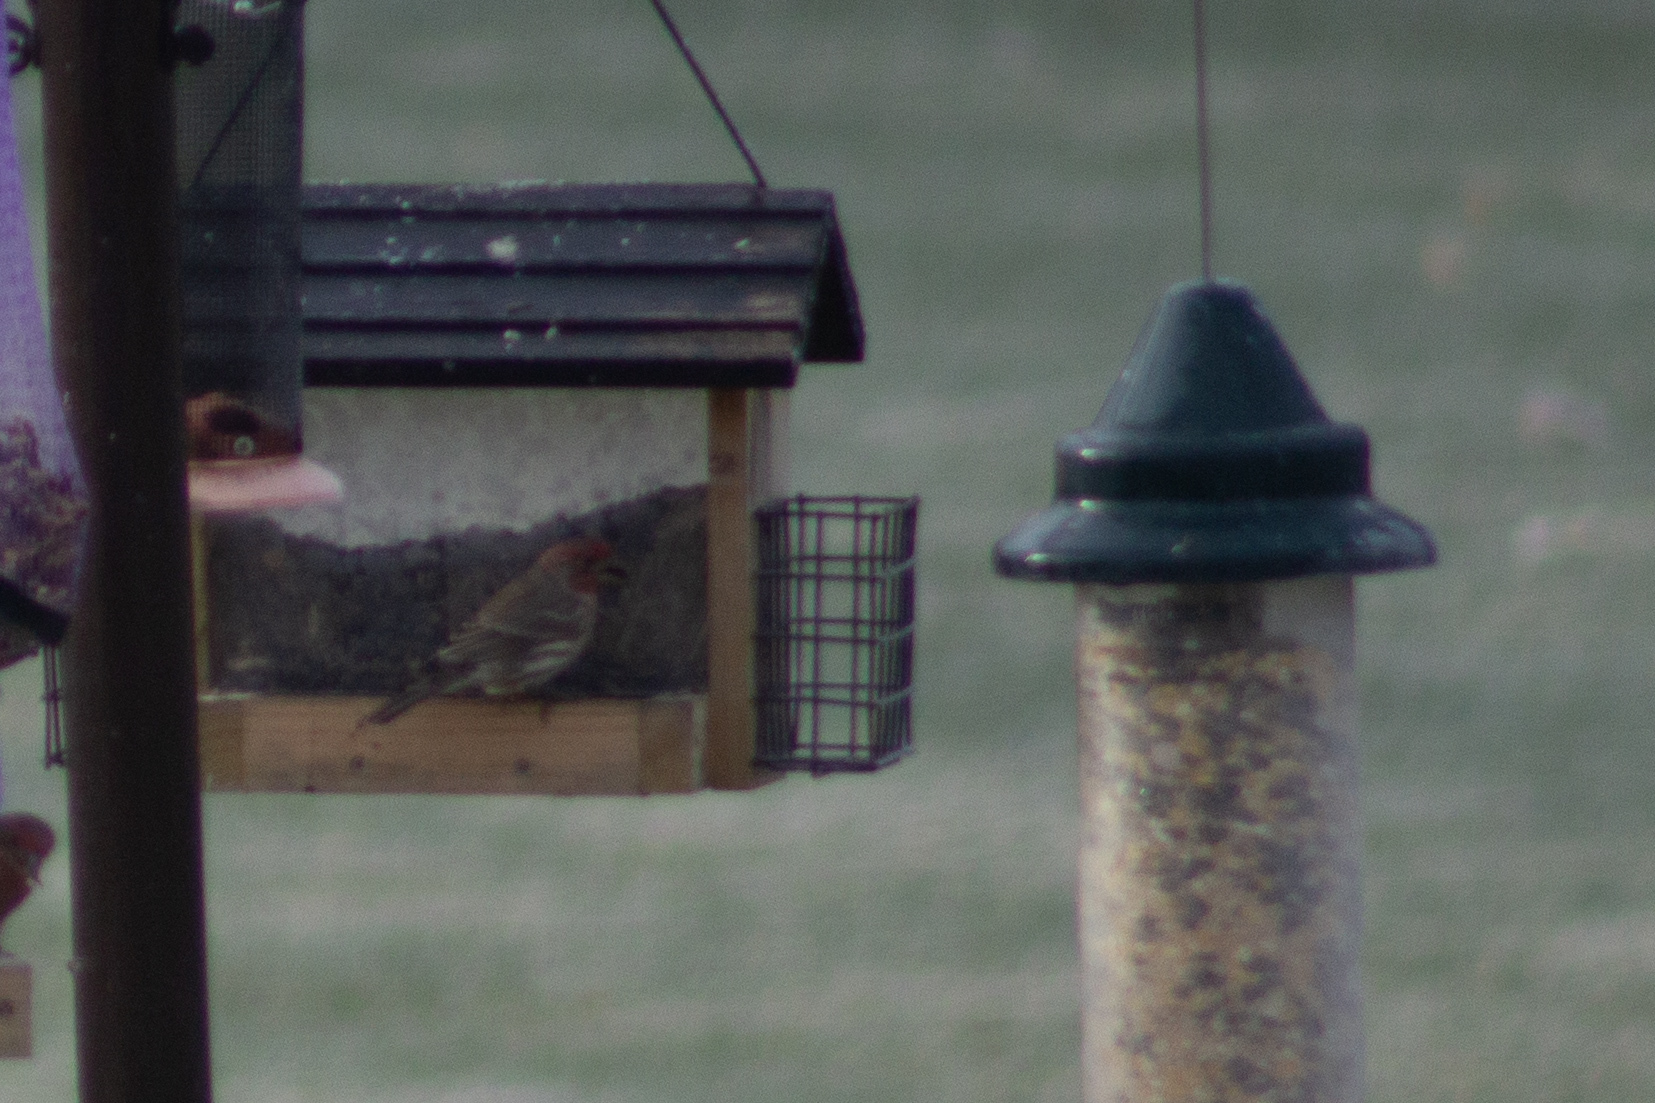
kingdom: Animalia
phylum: Chordata
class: Aves
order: Passeriformes
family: Fringillidae
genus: Haemorhous
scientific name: Haemorhous mexicanus
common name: House finch
